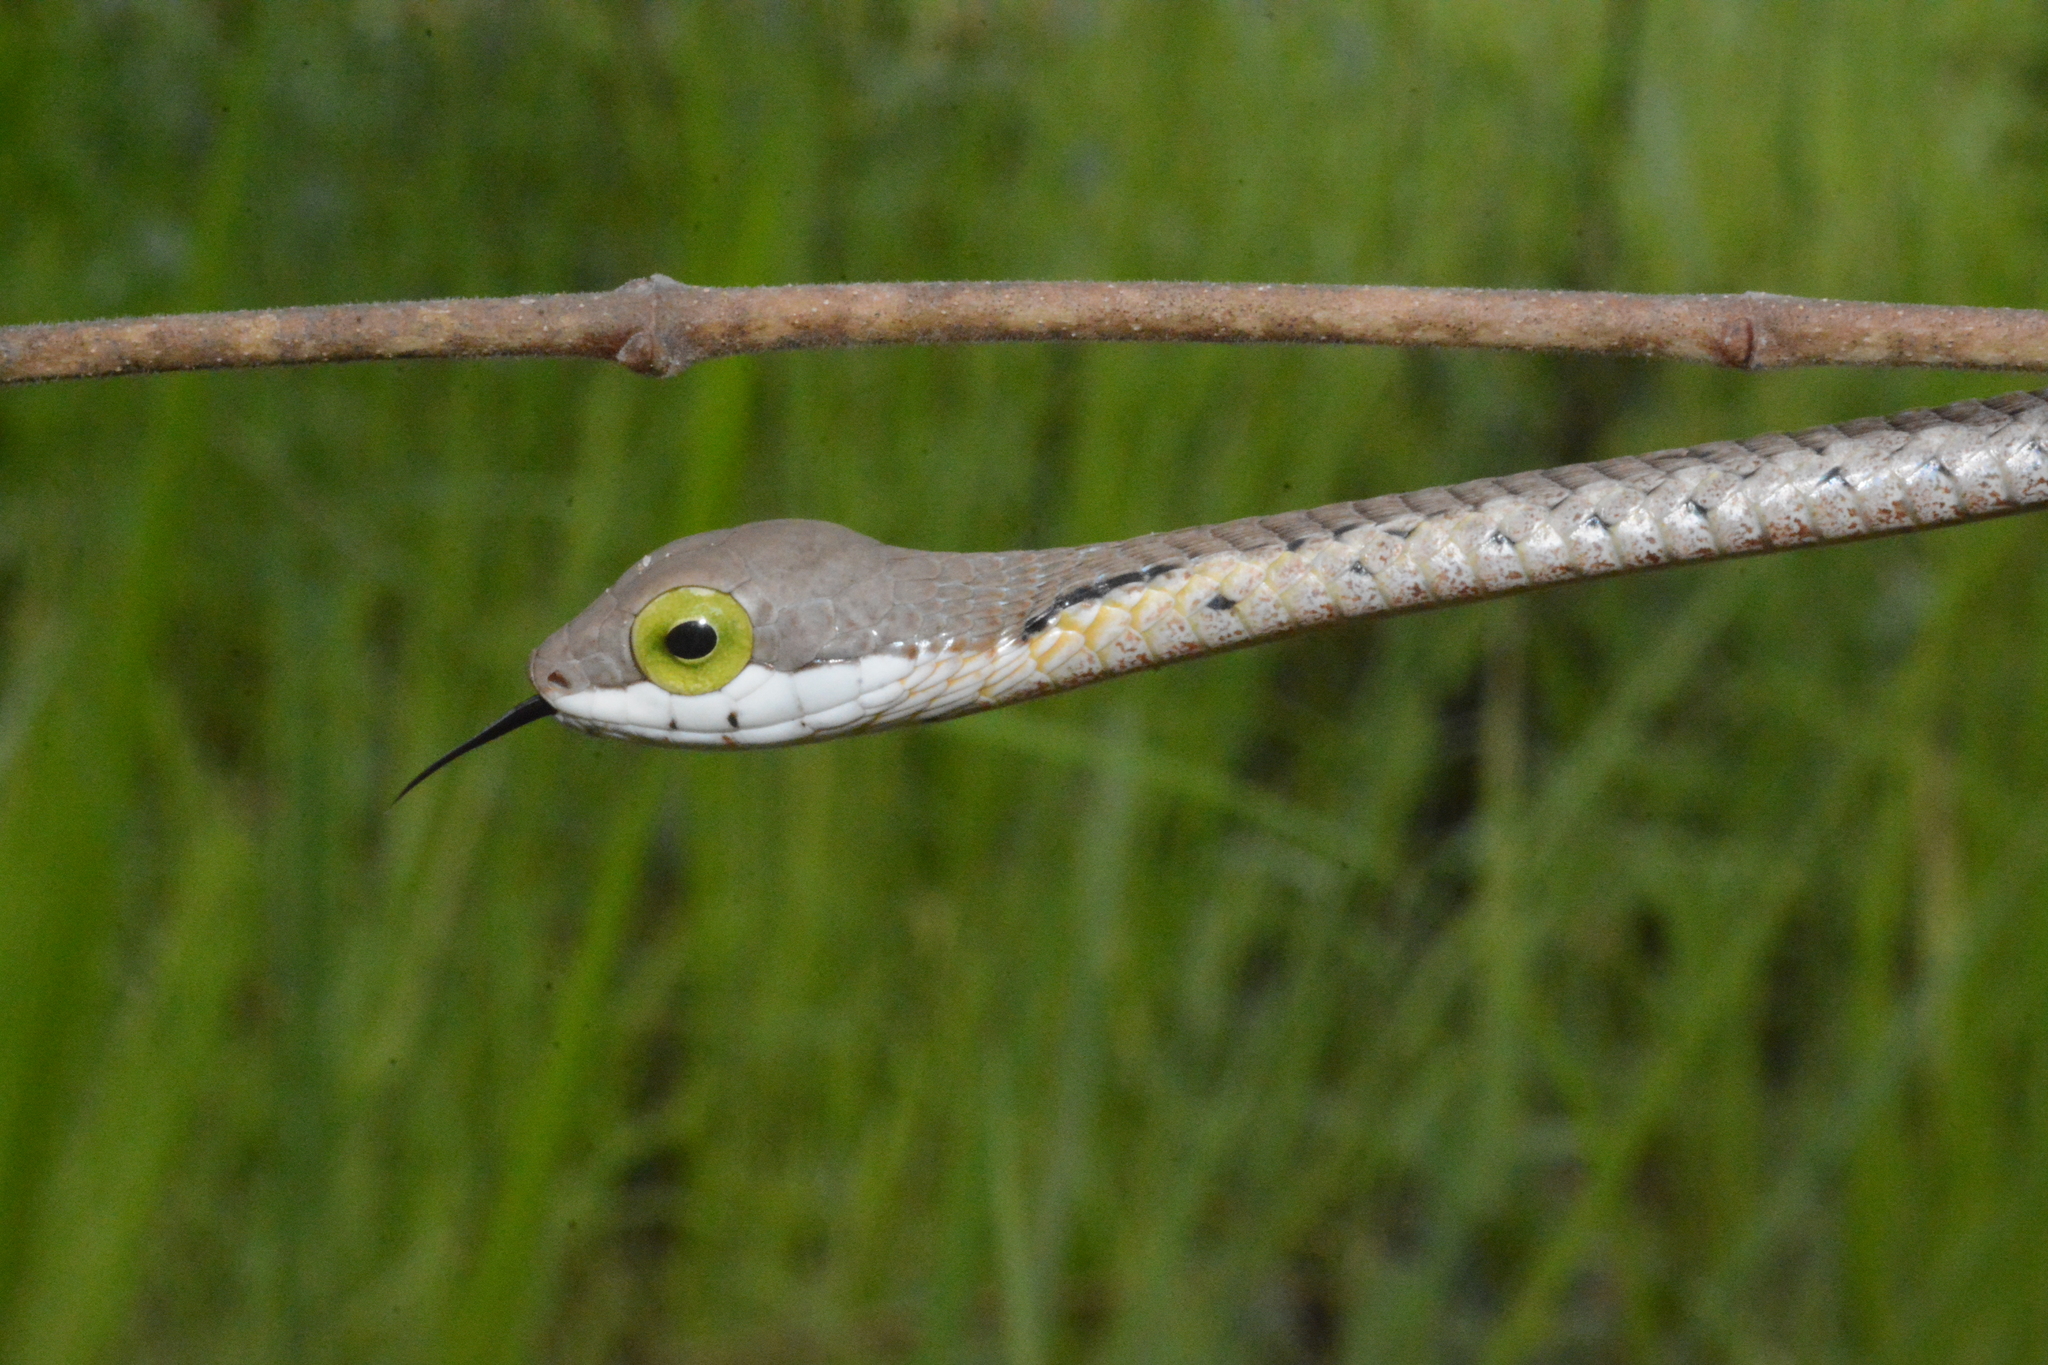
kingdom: Animalia
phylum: Chordata
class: Squamata
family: Colubridae
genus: Dispholidus
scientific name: Dispholidus typus
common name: Boomslang
